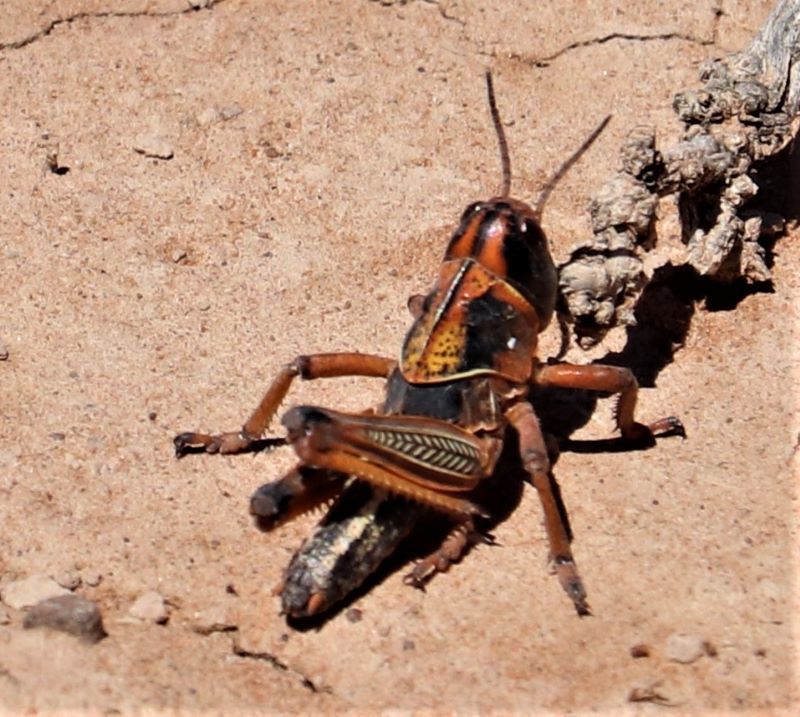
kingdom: Animalia
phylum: Arthropoda
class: Insecta
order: Orthoptera
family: Acrididae
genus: Locustana
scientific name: Locustana pardalina
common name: Brown locust
